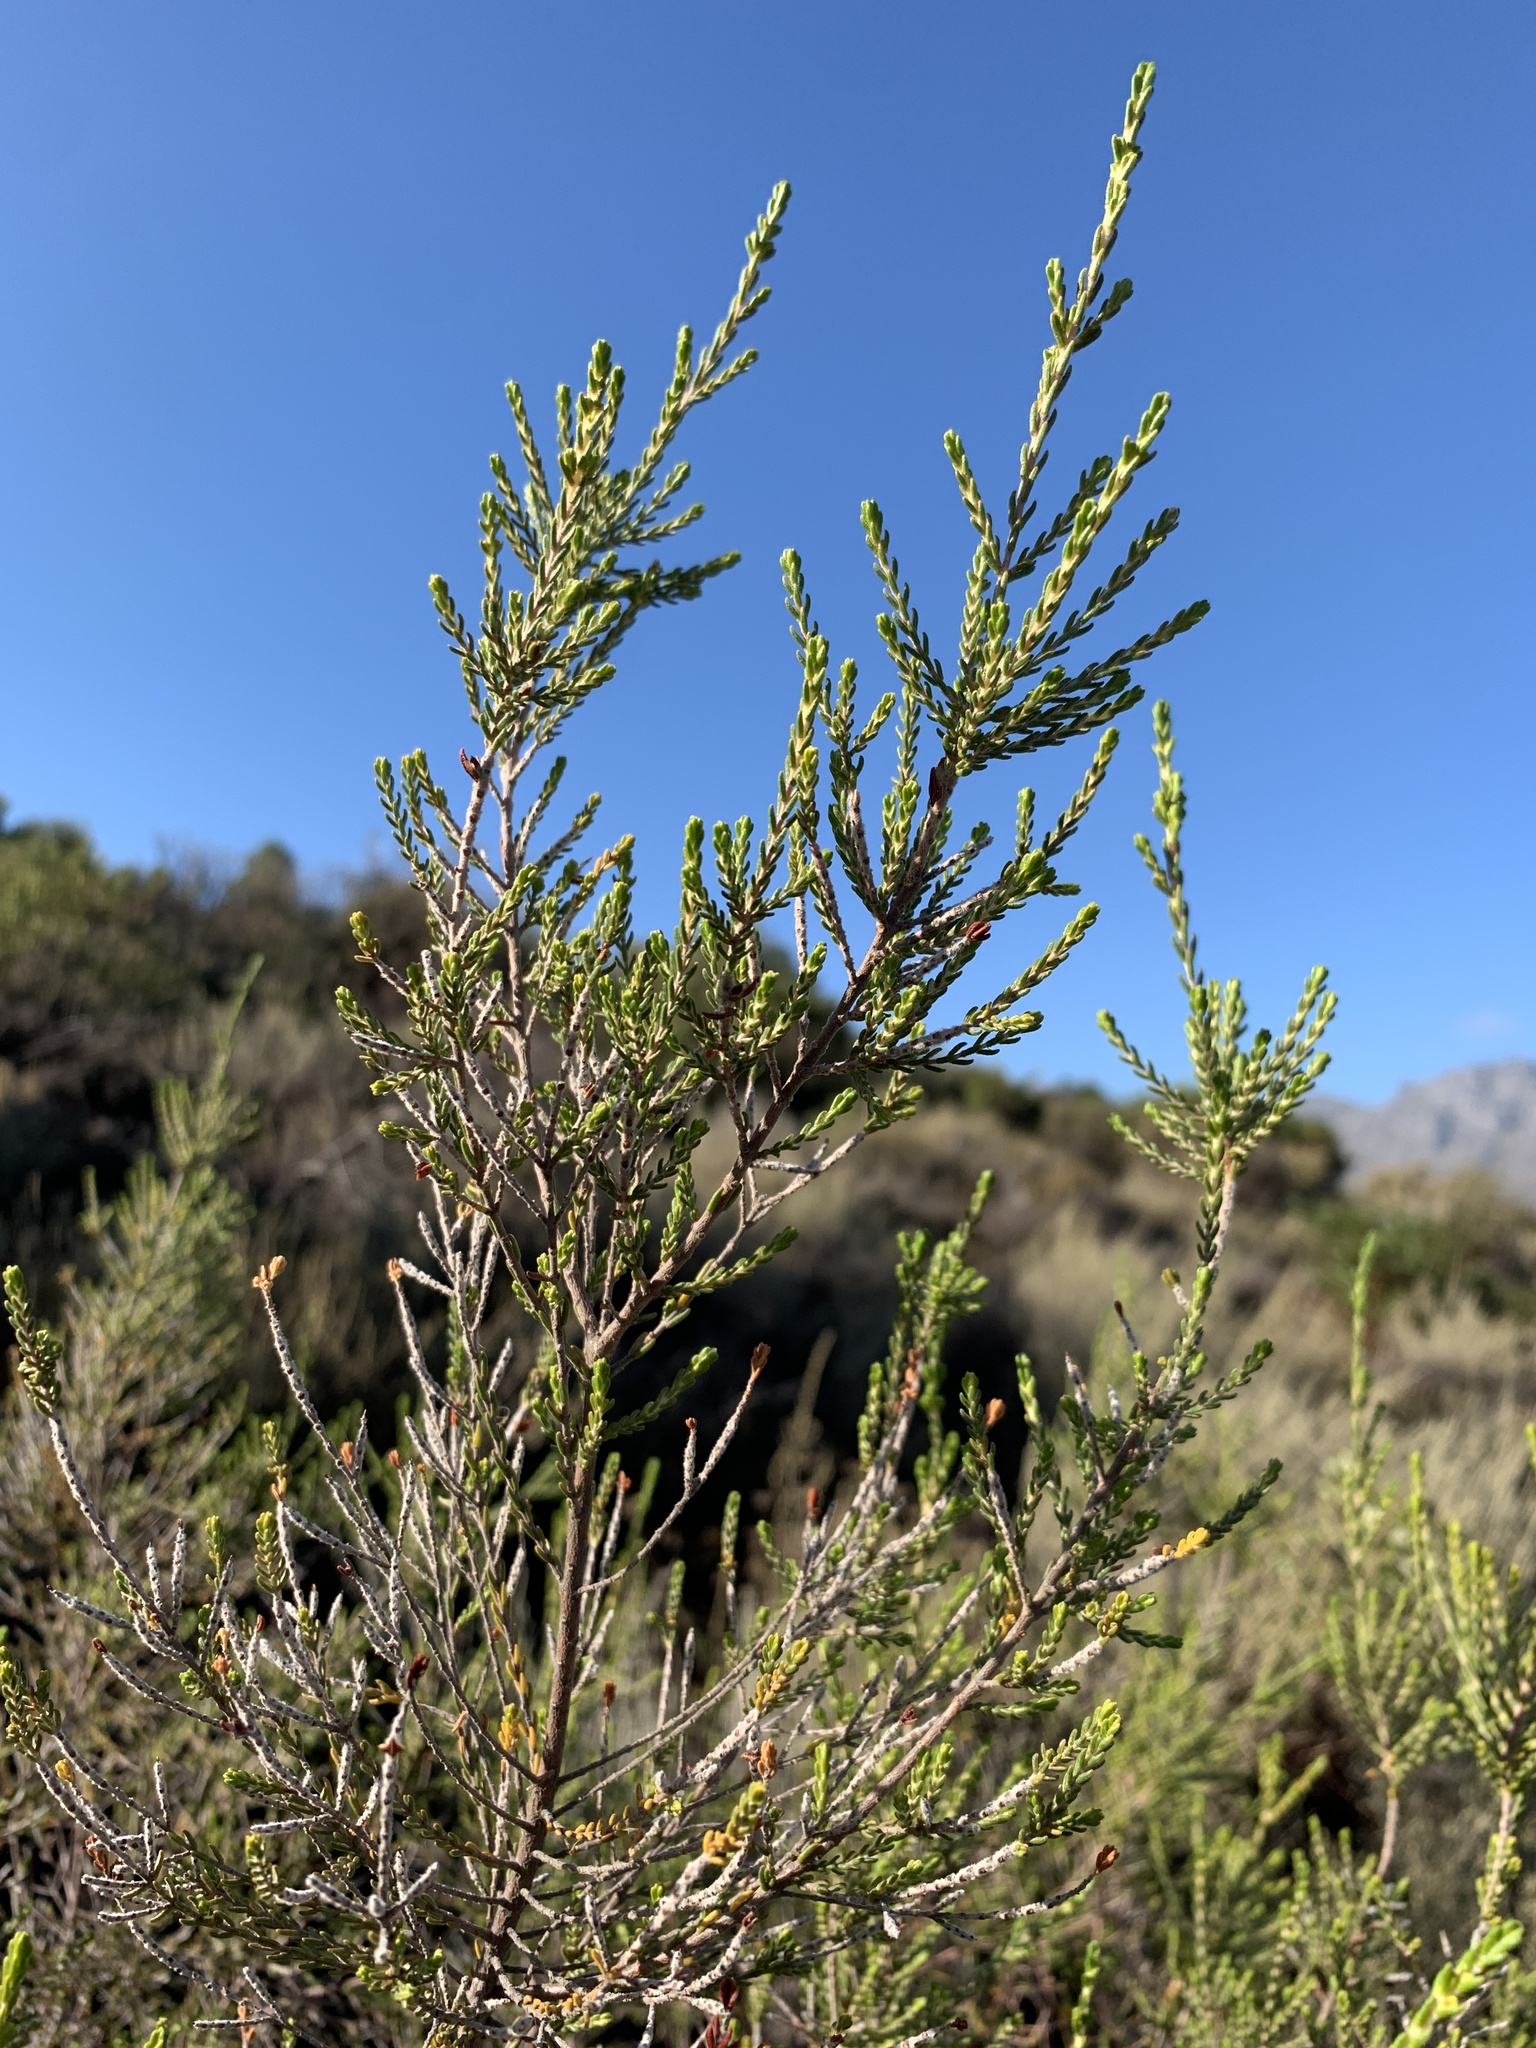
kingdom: Plantae
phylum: Tracheophyta
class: Magnoliopsida
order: Malvales
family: Thymelaeaceae
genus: Passerina
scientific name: Passerina corymbosa
